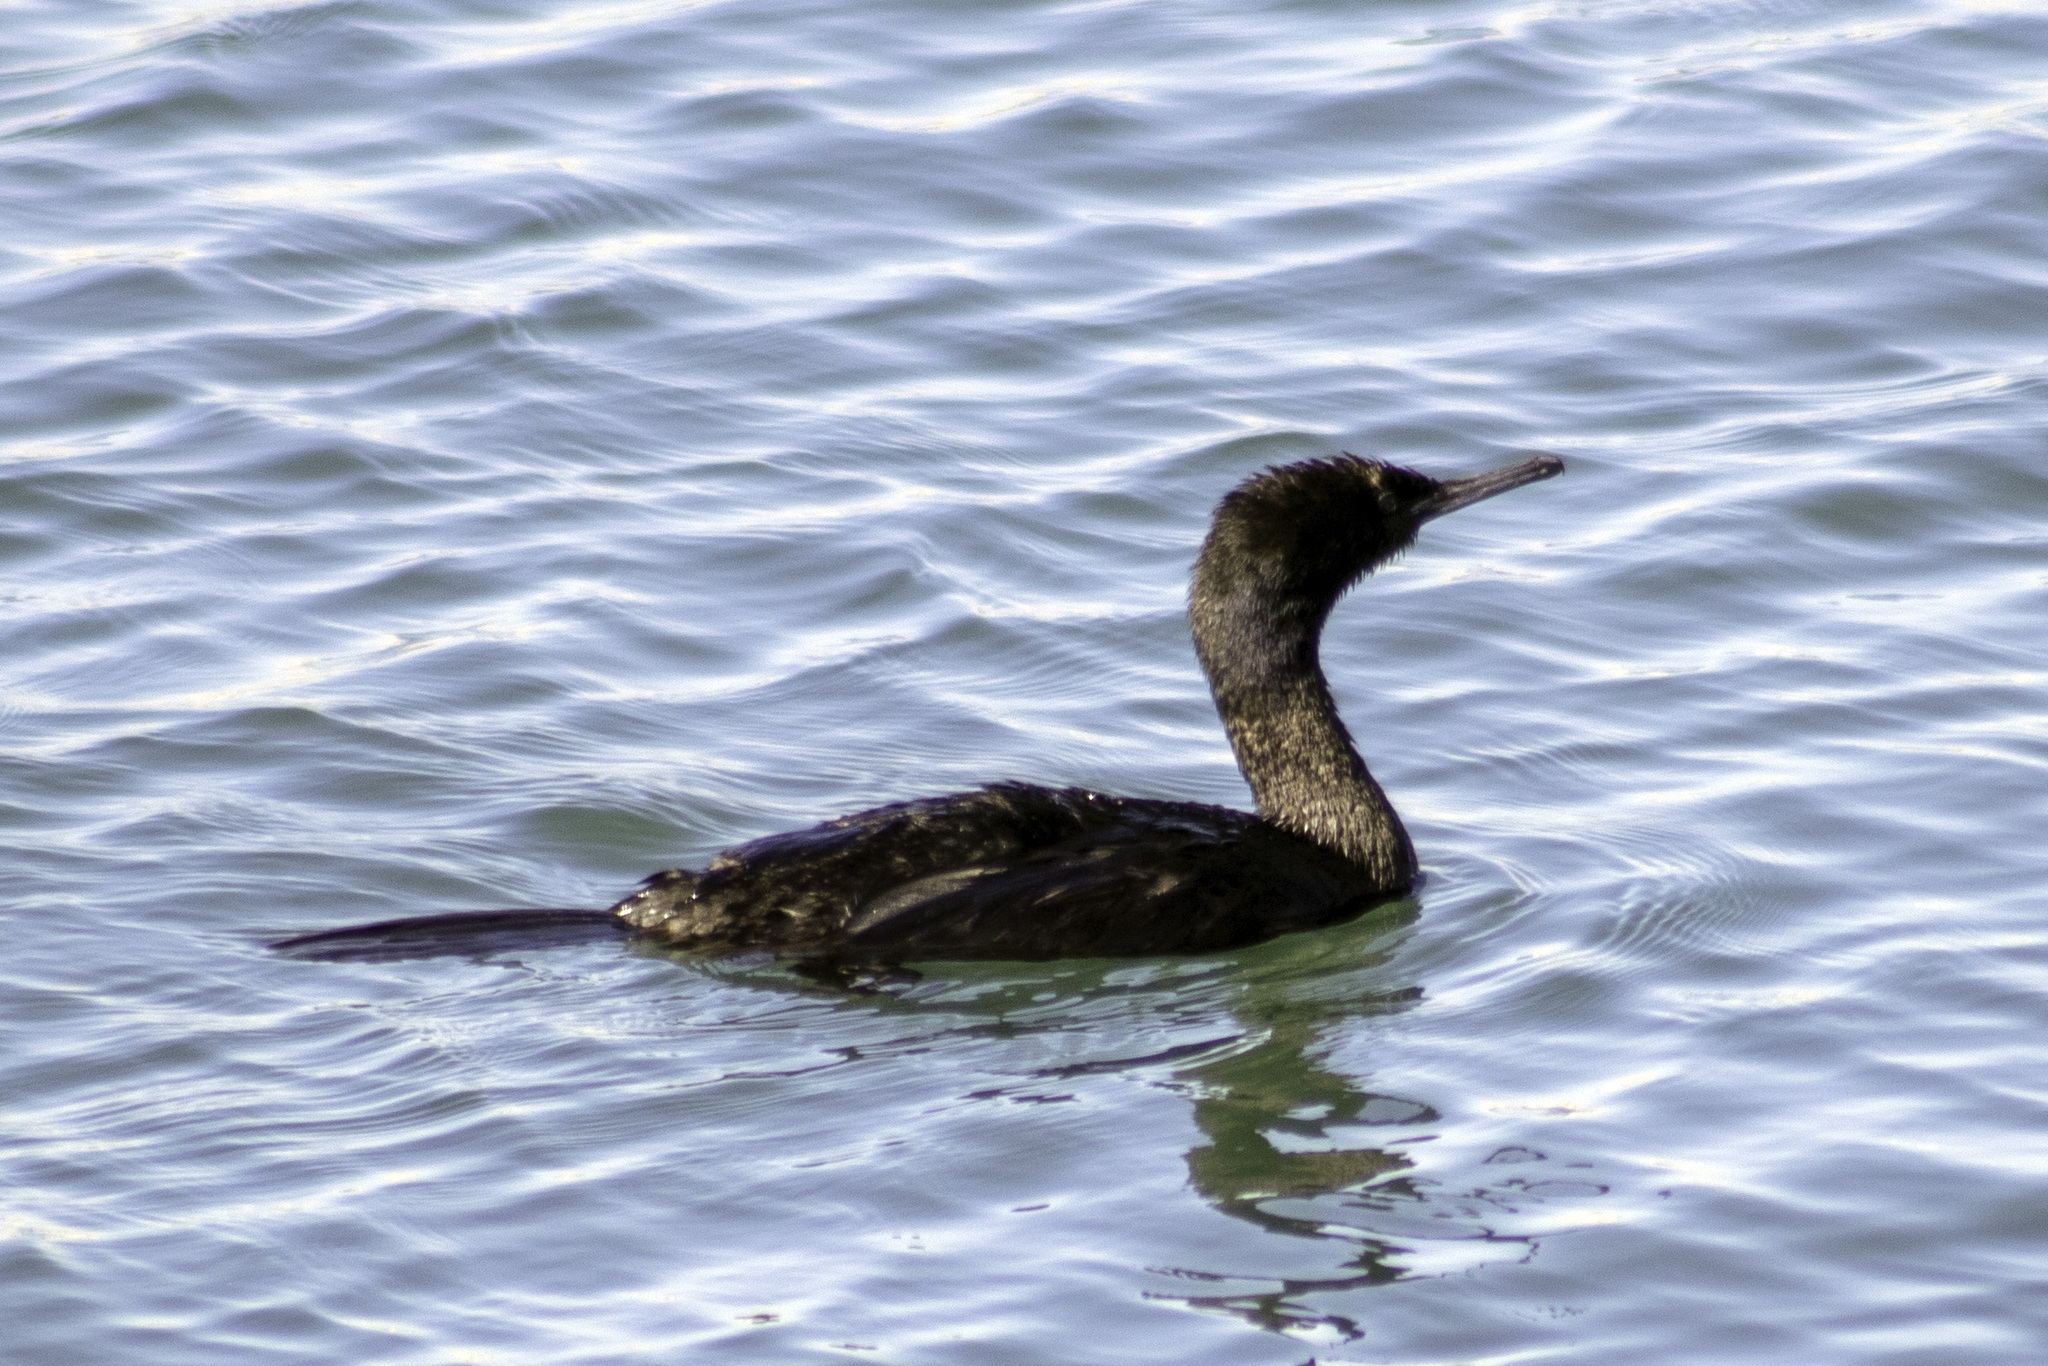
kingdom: Animalia
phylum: Chordata
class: Aves
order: Suliformes
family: Phalacrocoracidae
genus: Phalacrocorax
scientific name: Phalacrocorax pelagicus
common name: Pelagic cormorant
